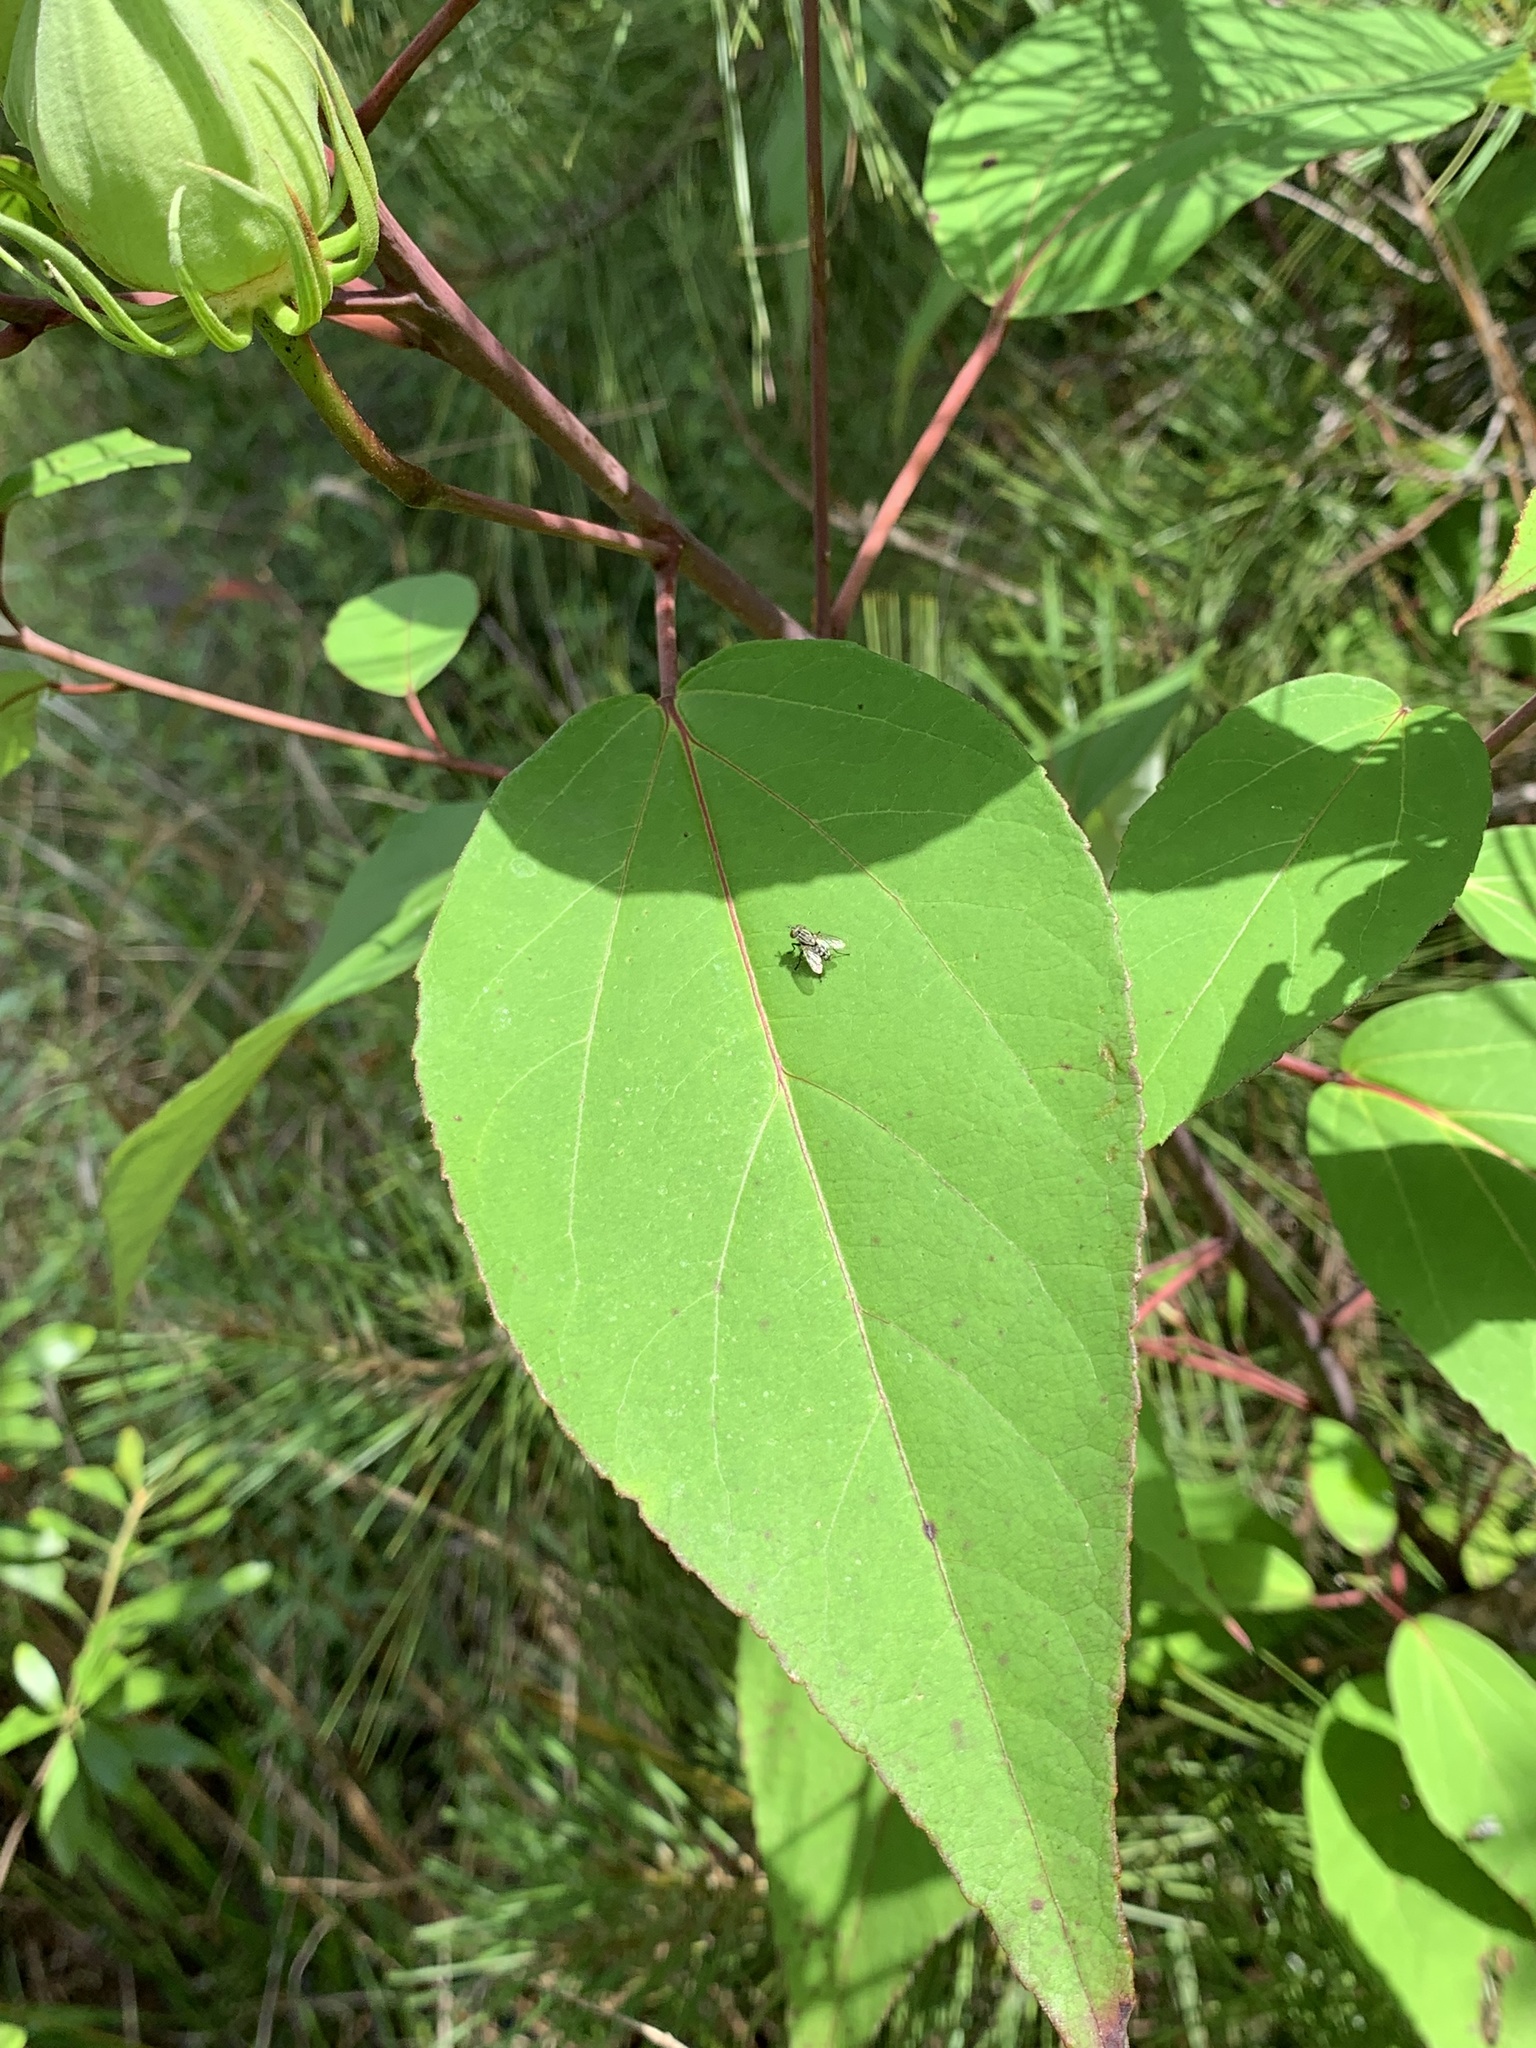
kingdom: Plantae
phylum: Tracheophyta
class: Magnoliopsida
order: Malvales
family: Malvaceae
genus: Hibiscus
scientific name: Hibiscus moscheutos
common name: Common rose-mallow
